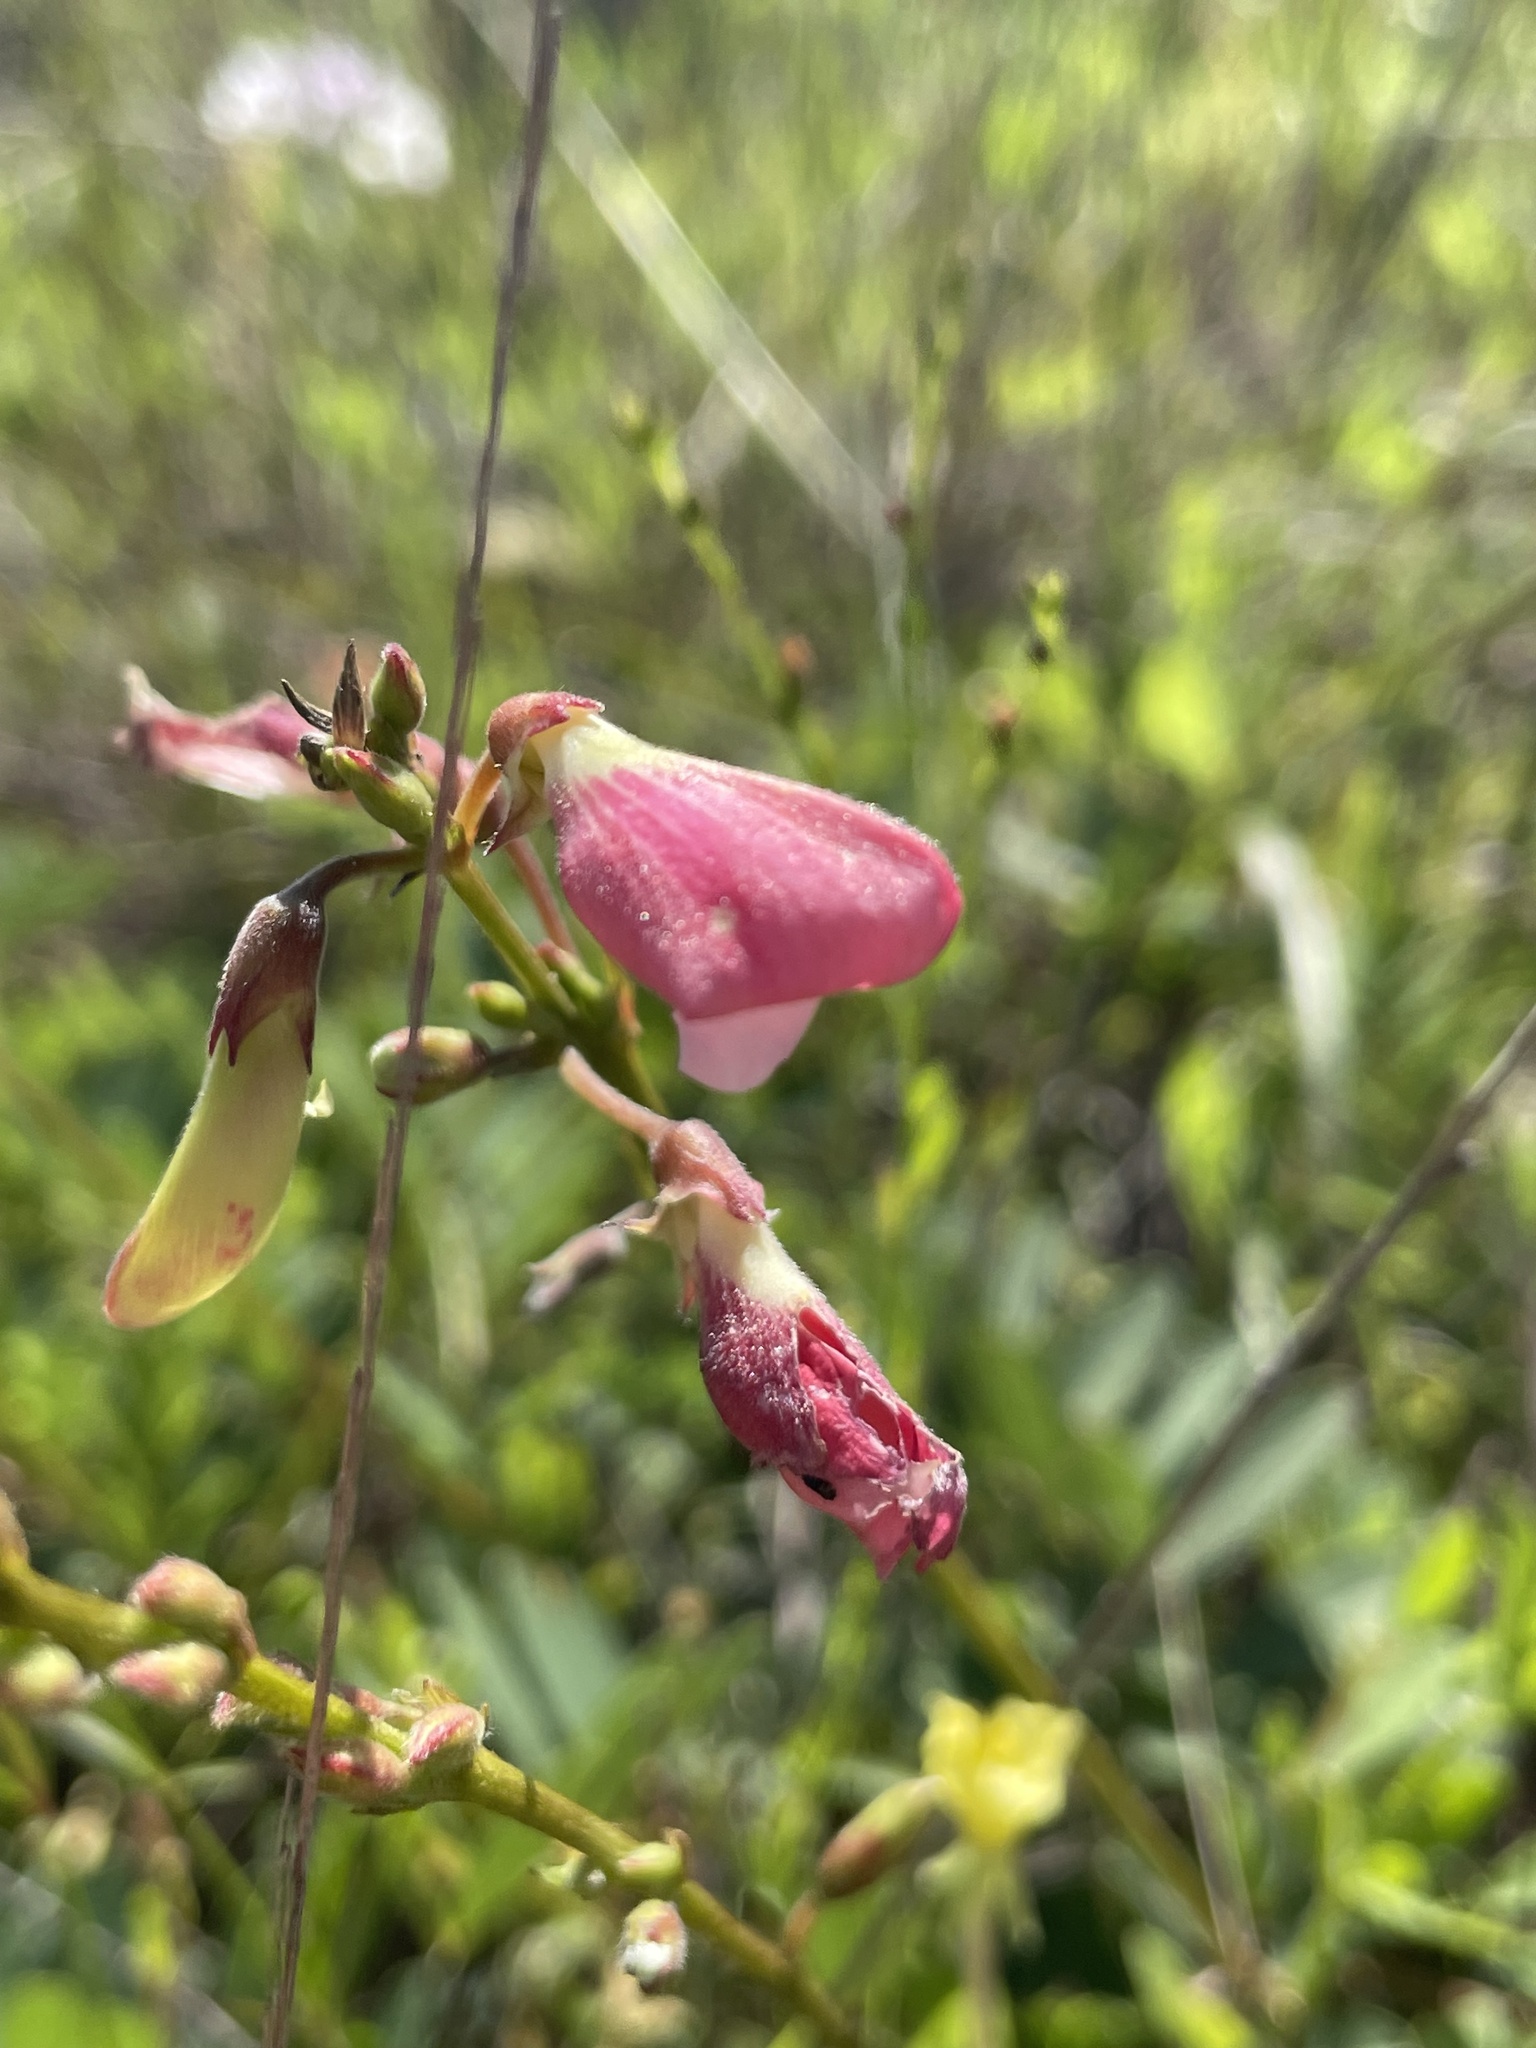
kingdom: Plantae
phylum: Tracheophyta
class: Magnoliopsida
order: Fabales
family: Fabaceae
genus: Tephrosia
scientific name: Tephrosia onobrychoides
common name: Multi-bloom hoary-pea
